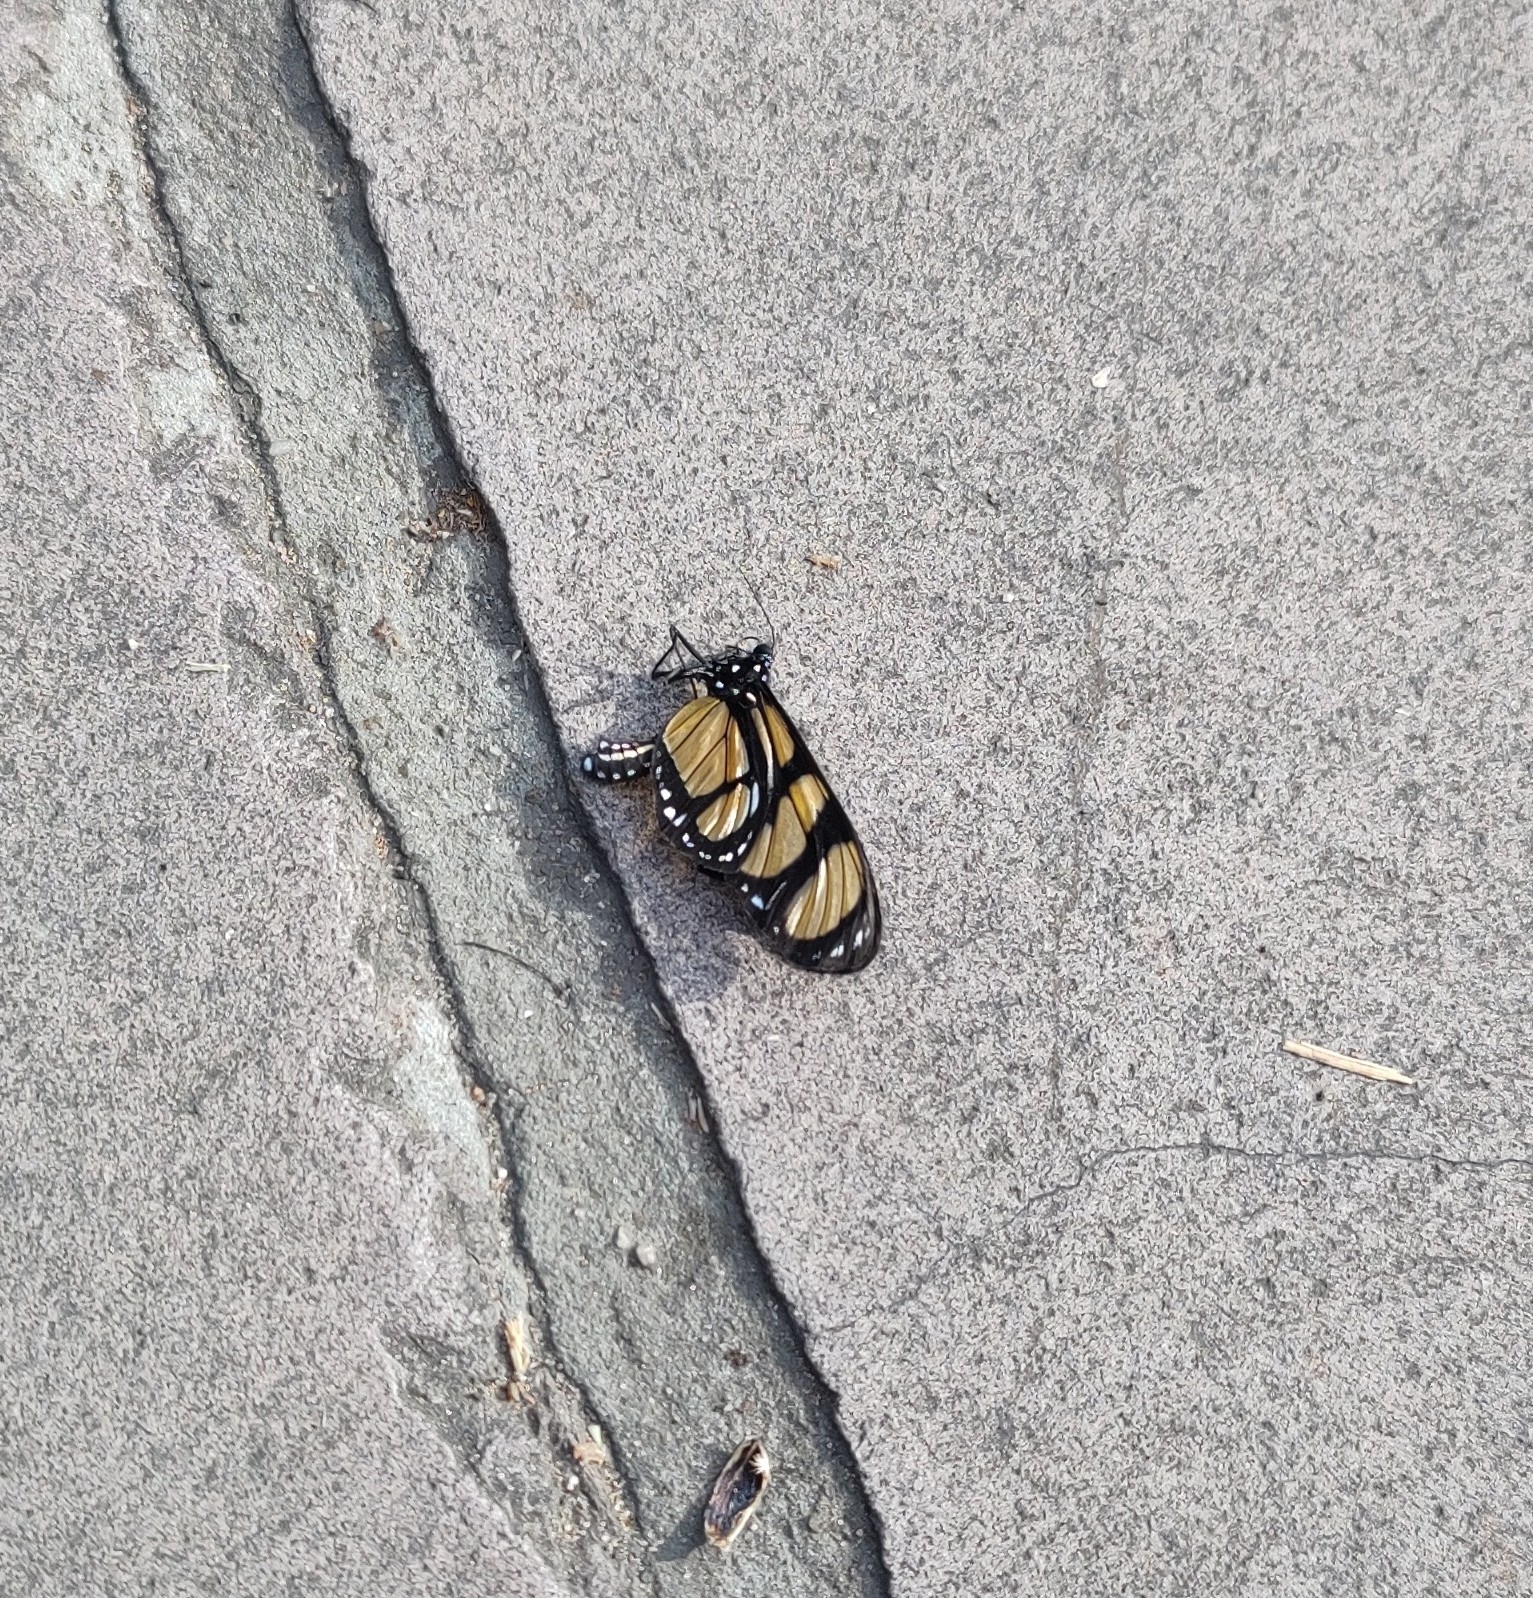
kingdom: Animalia
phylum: Arthropoda
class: Insecta
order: Lepidoptera
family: Nymphalidae
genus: Methona
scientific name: Methona themisto
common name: Themisto amberwing
